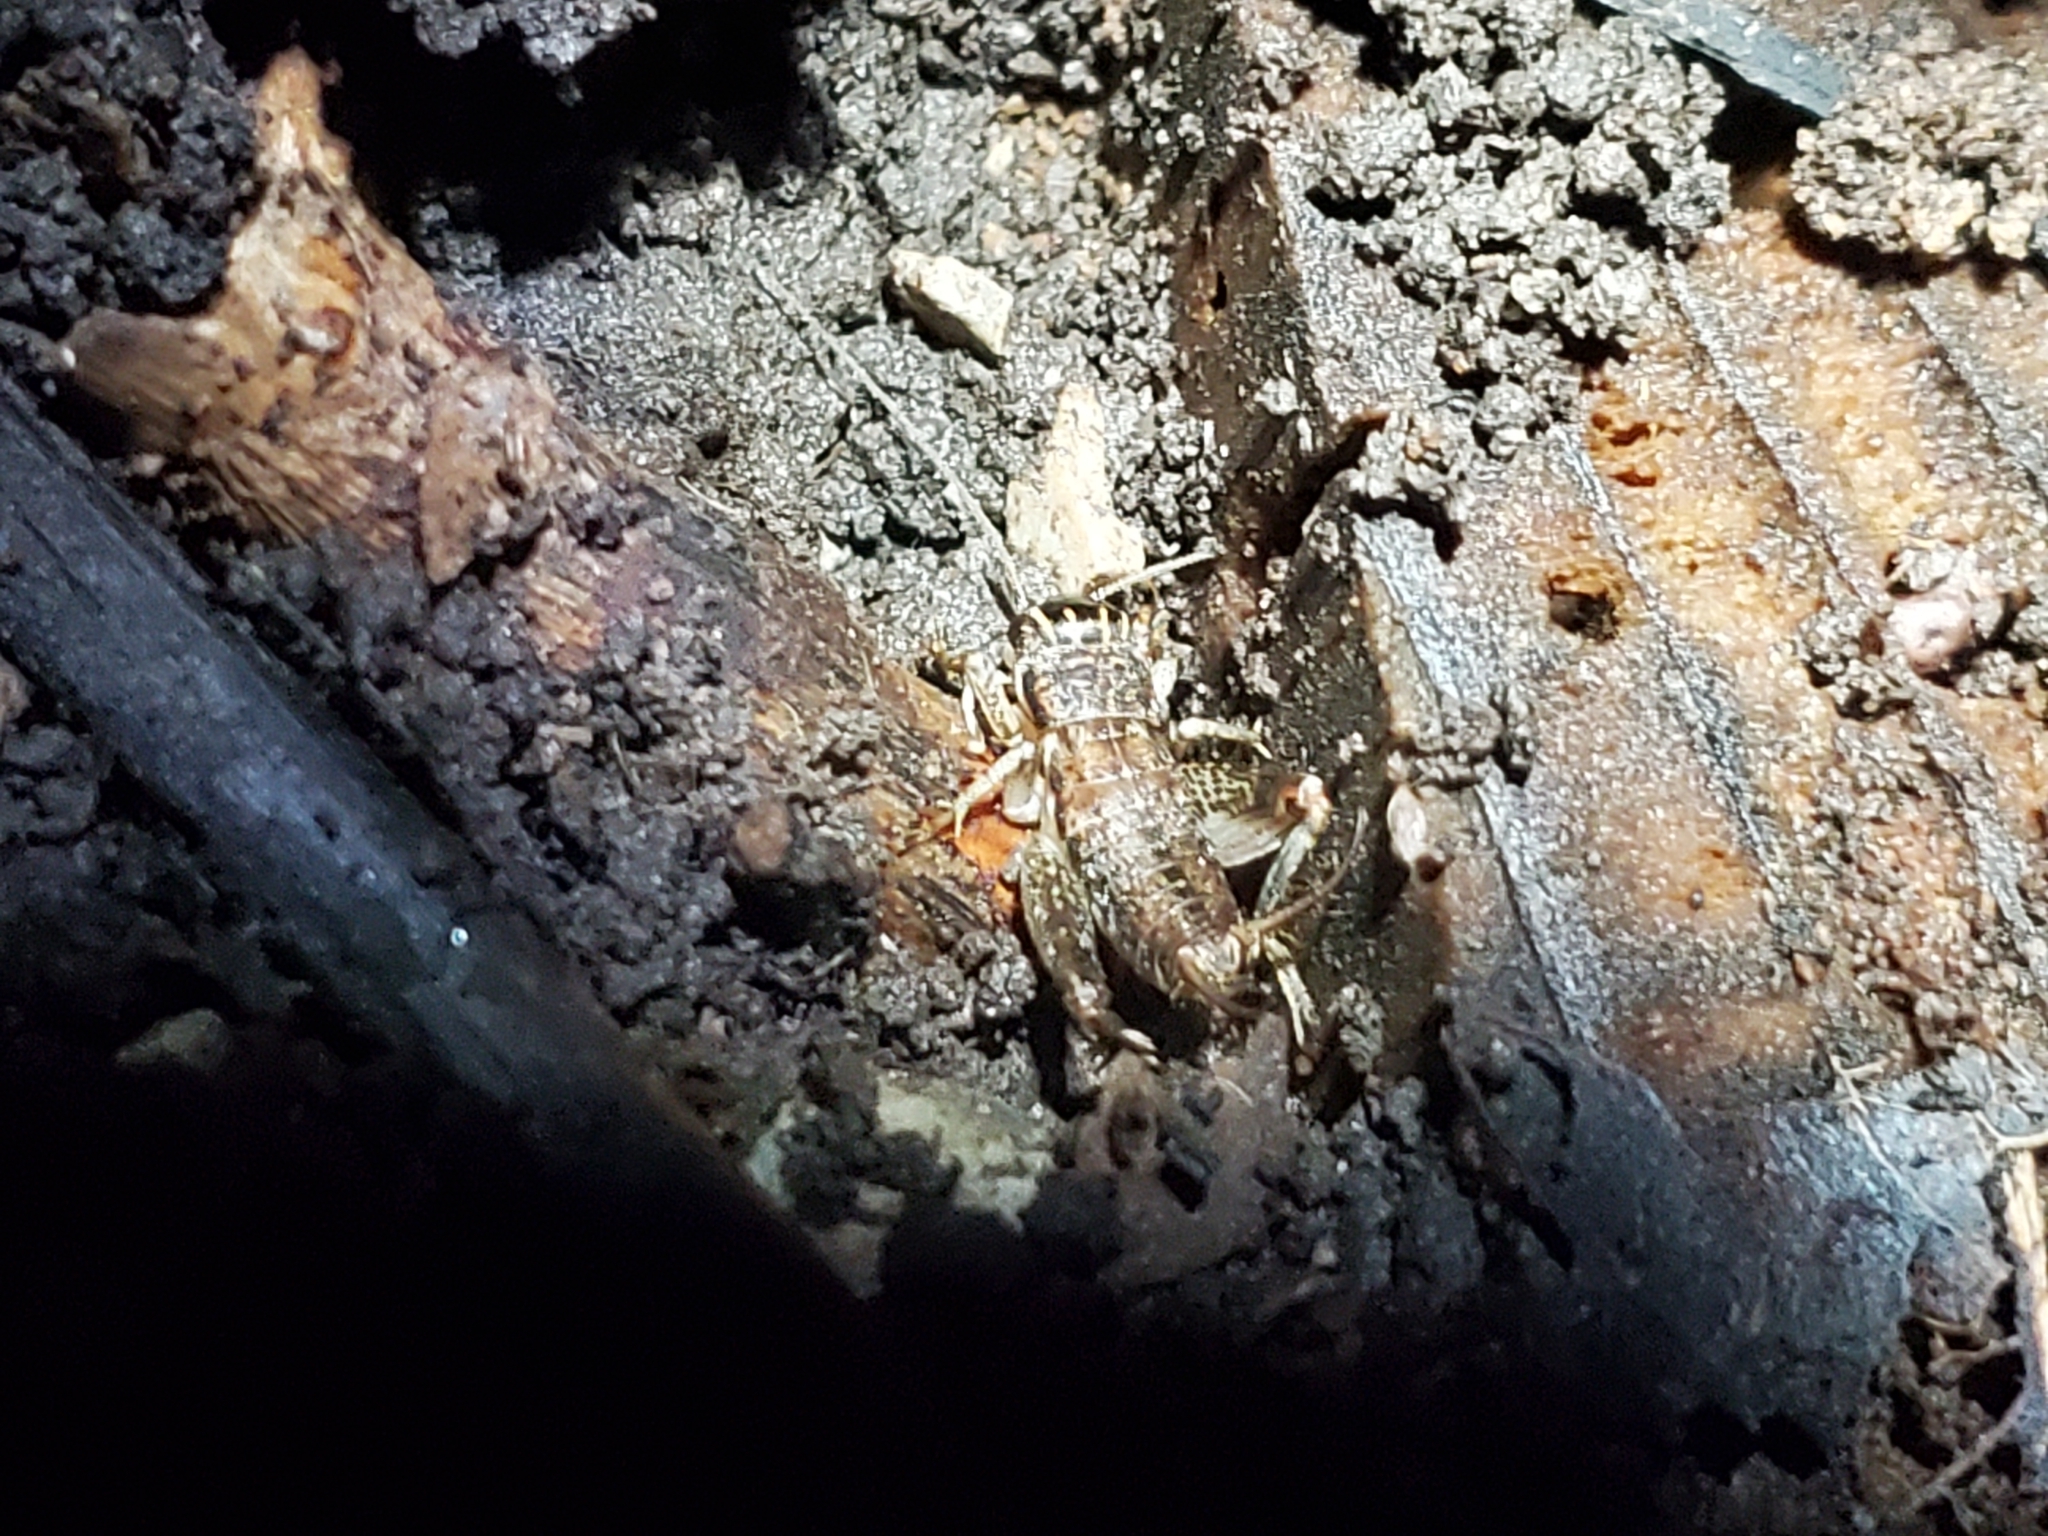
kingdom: Animalia
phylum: Arthropoda
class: Insecta
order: Orthoptera
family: Gryllidae
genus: Velarifictorus
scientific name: Velarifictorus micado
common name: Japanese burrowing cricket
